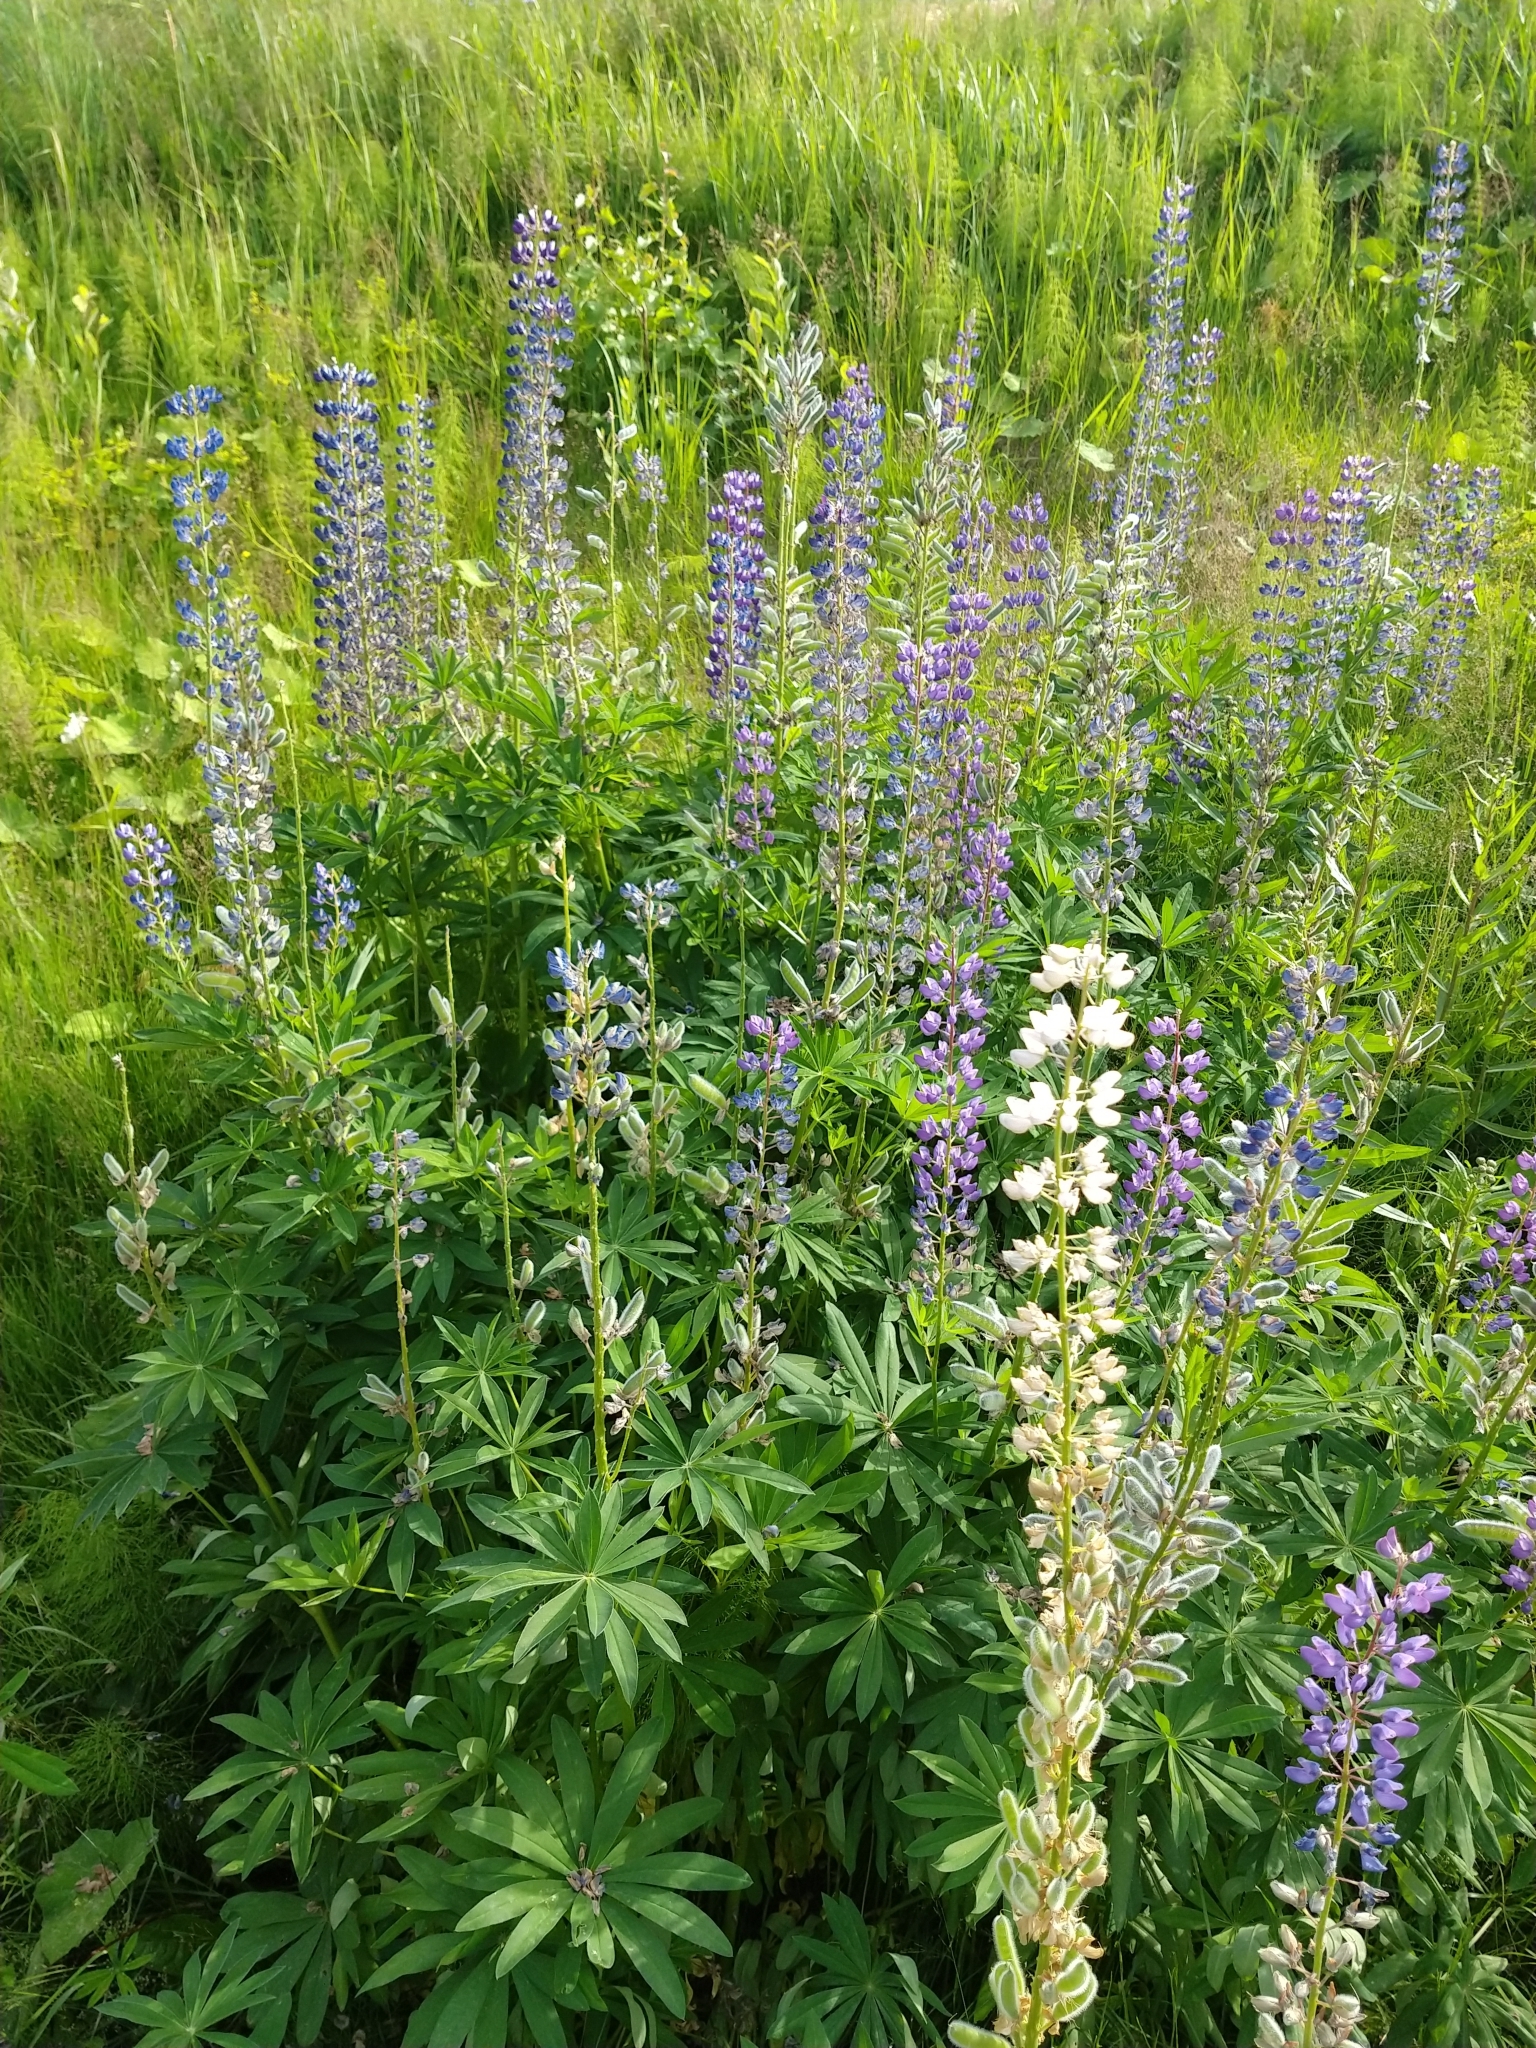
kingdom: Plantae
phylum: Tracheophyta
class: Magnoliopsida
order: Fabales
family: Fabaceae
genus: Lupinus
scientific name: Lupinus polyphyllus
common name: Garden lupin
